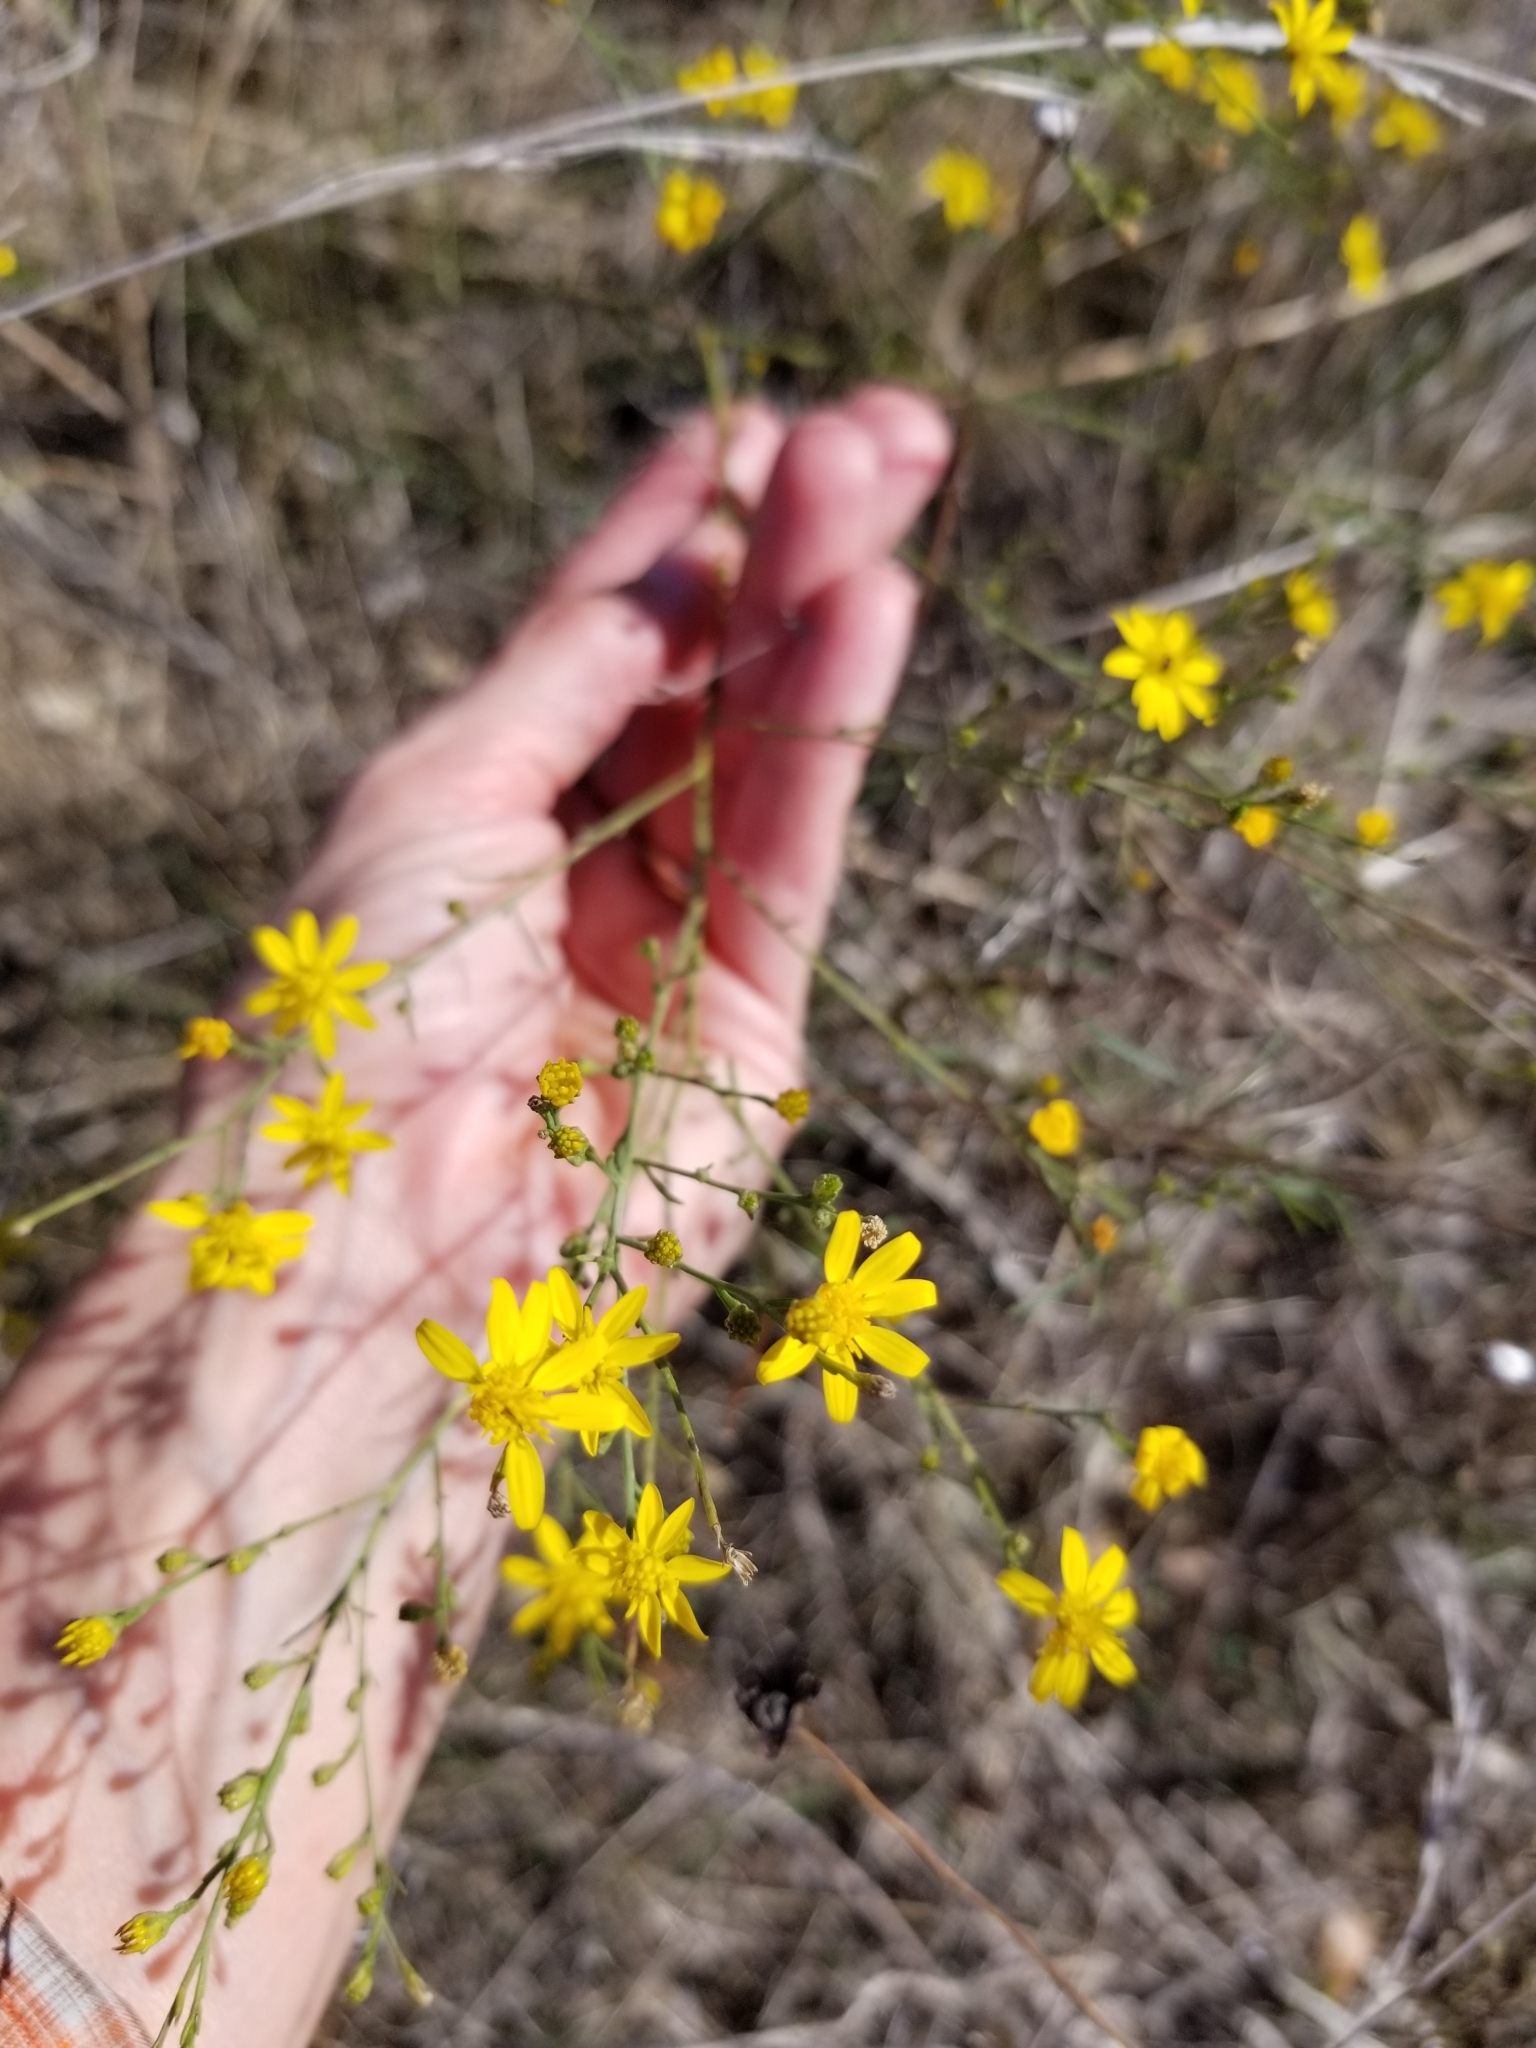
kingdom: Plantae
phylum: Tracheophyta
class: Magnoliopsida
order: Asterales
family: Asteraceae
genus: Gutierrezia
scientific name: Gutierrezia texana
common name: Texas snakeweed
